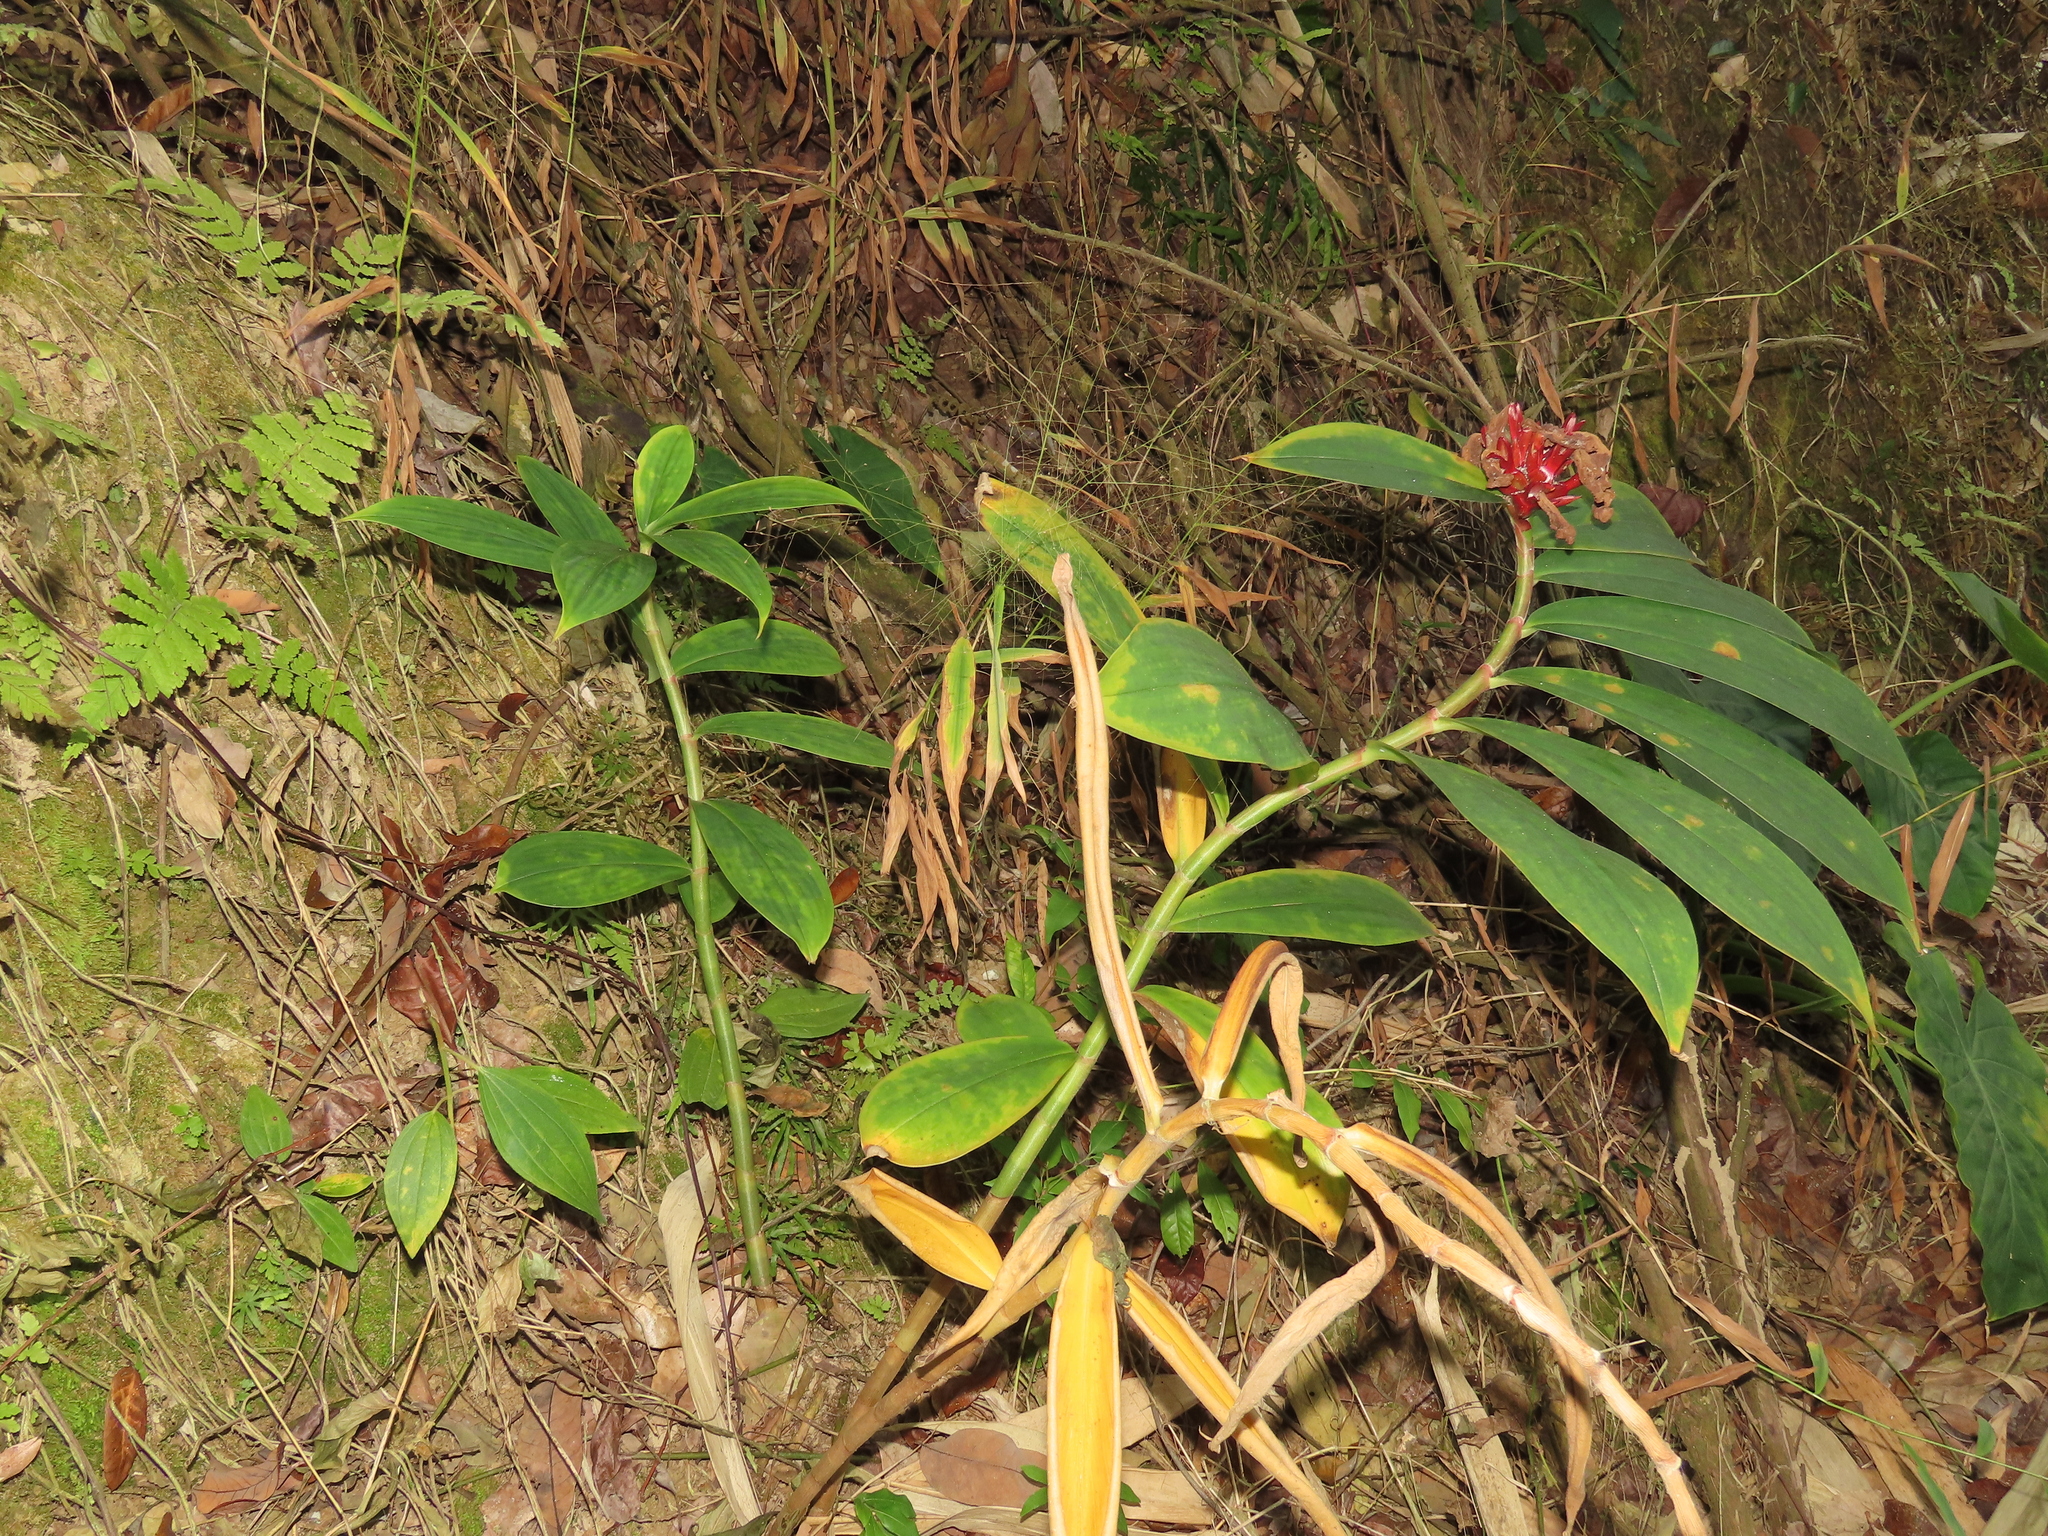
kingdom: Plantae
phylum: Tracheophyta
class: Liliopsida
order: Zingiberales
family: Costaceae
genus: Hellenia
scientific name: Hellenia speciosa
